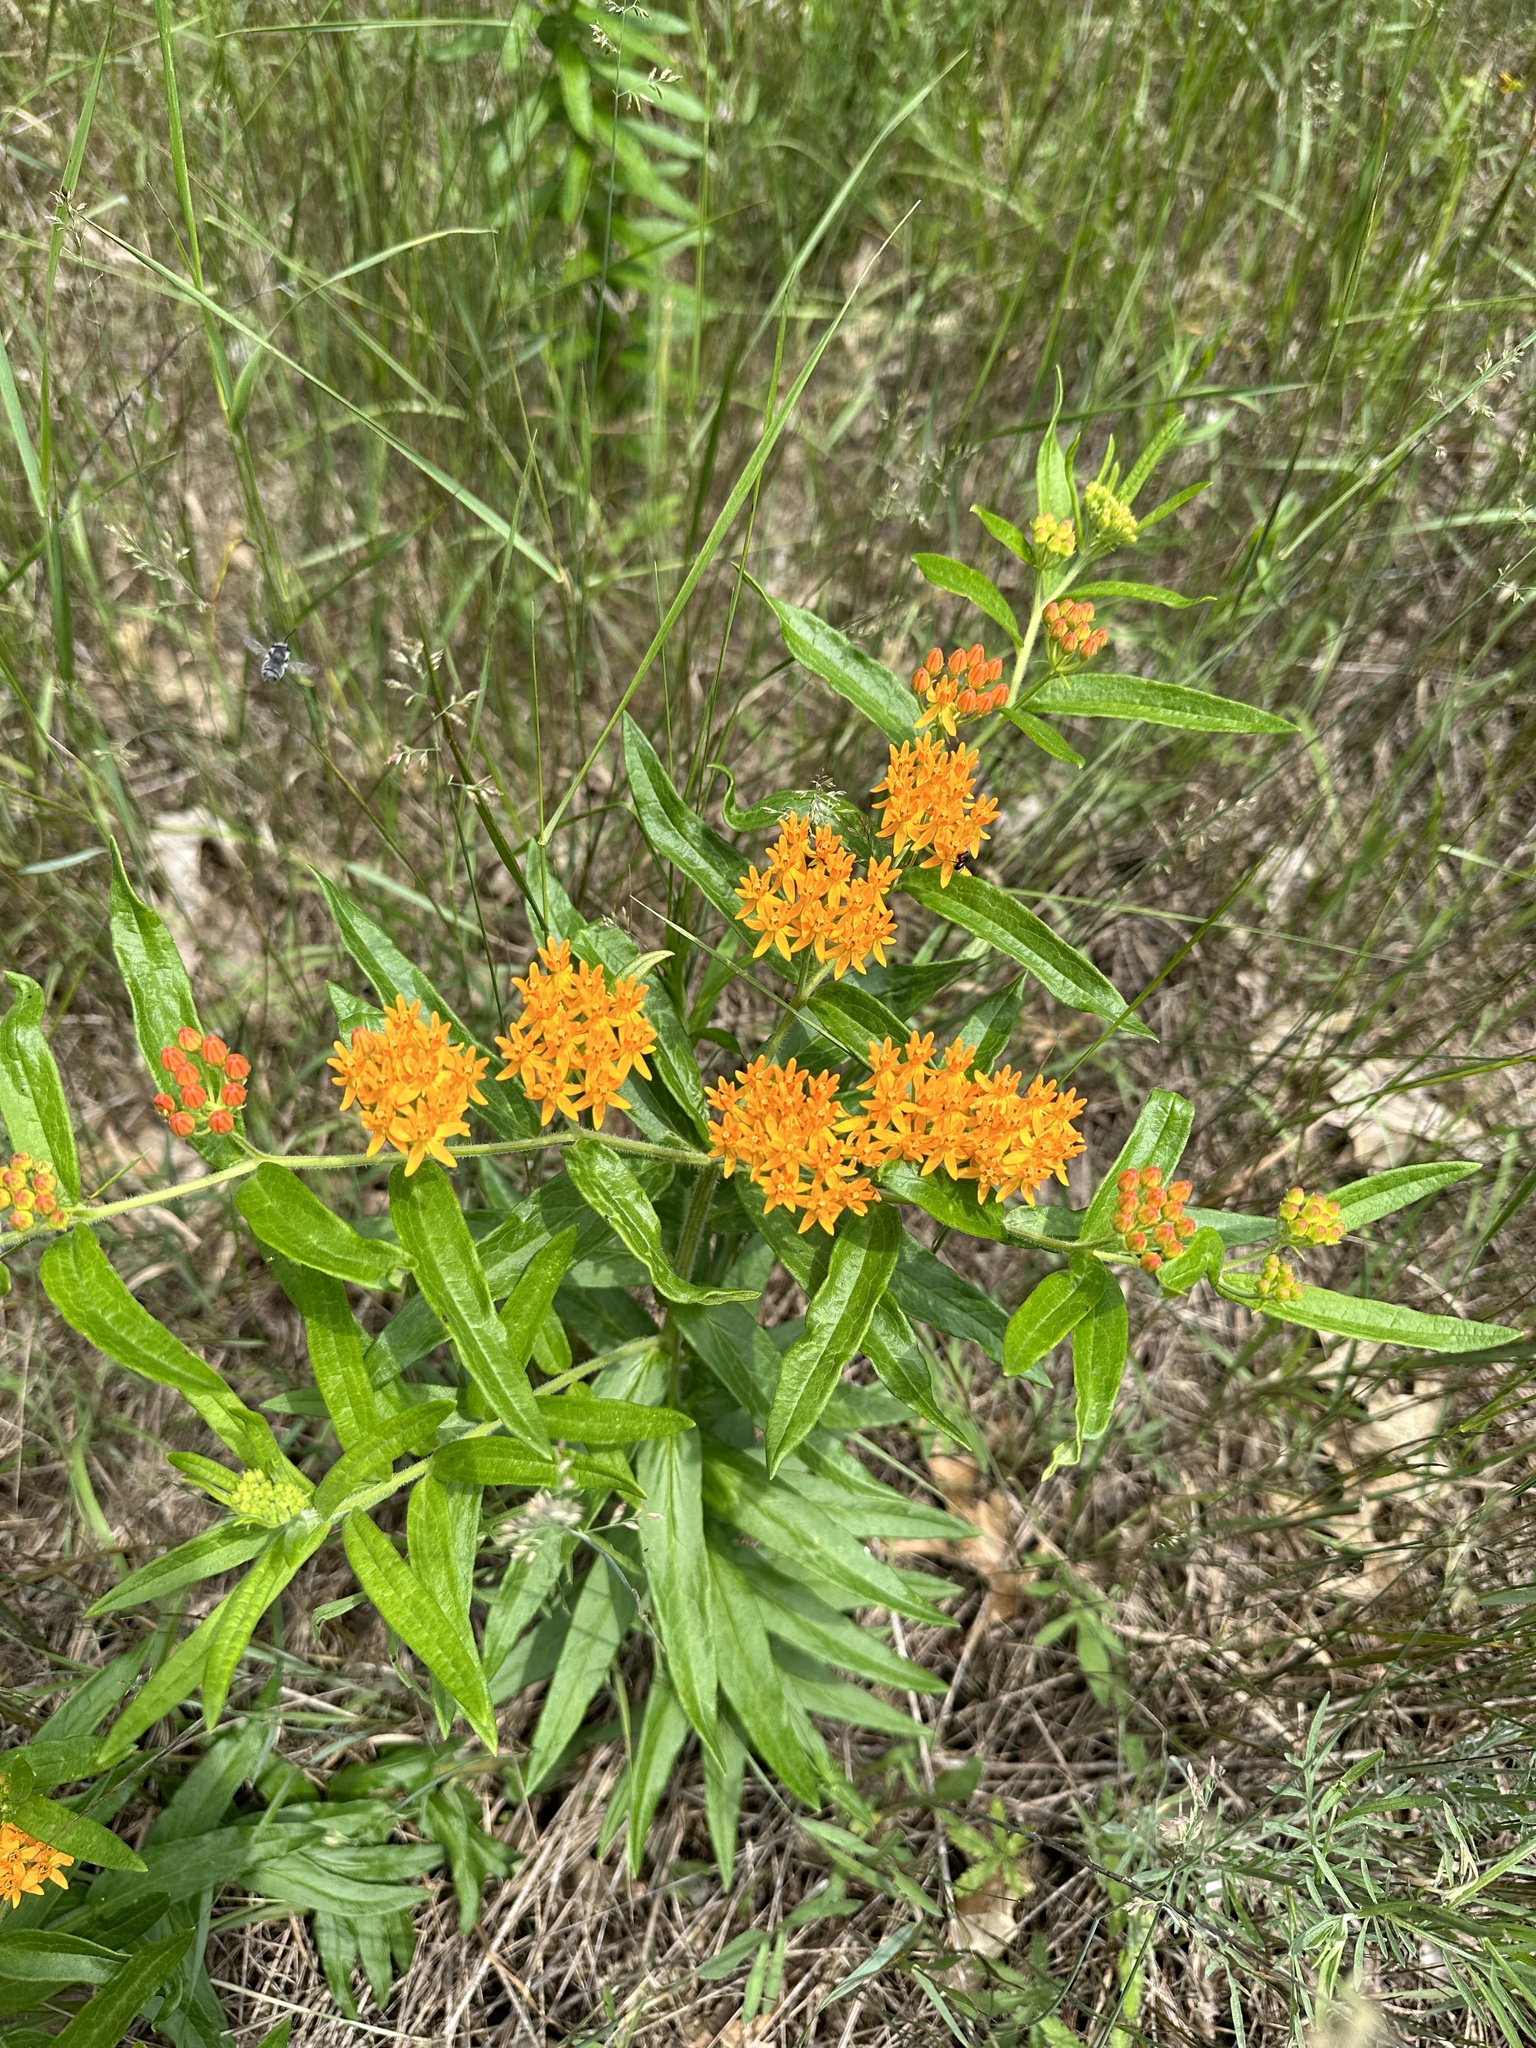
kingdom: Plantae
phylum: Tracheophyta
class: Magnoliopsida
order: Gentianales
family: Apocynaceae
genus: Asclepias
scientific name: Asclepias tuberosa
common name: Butterfly milkweed
